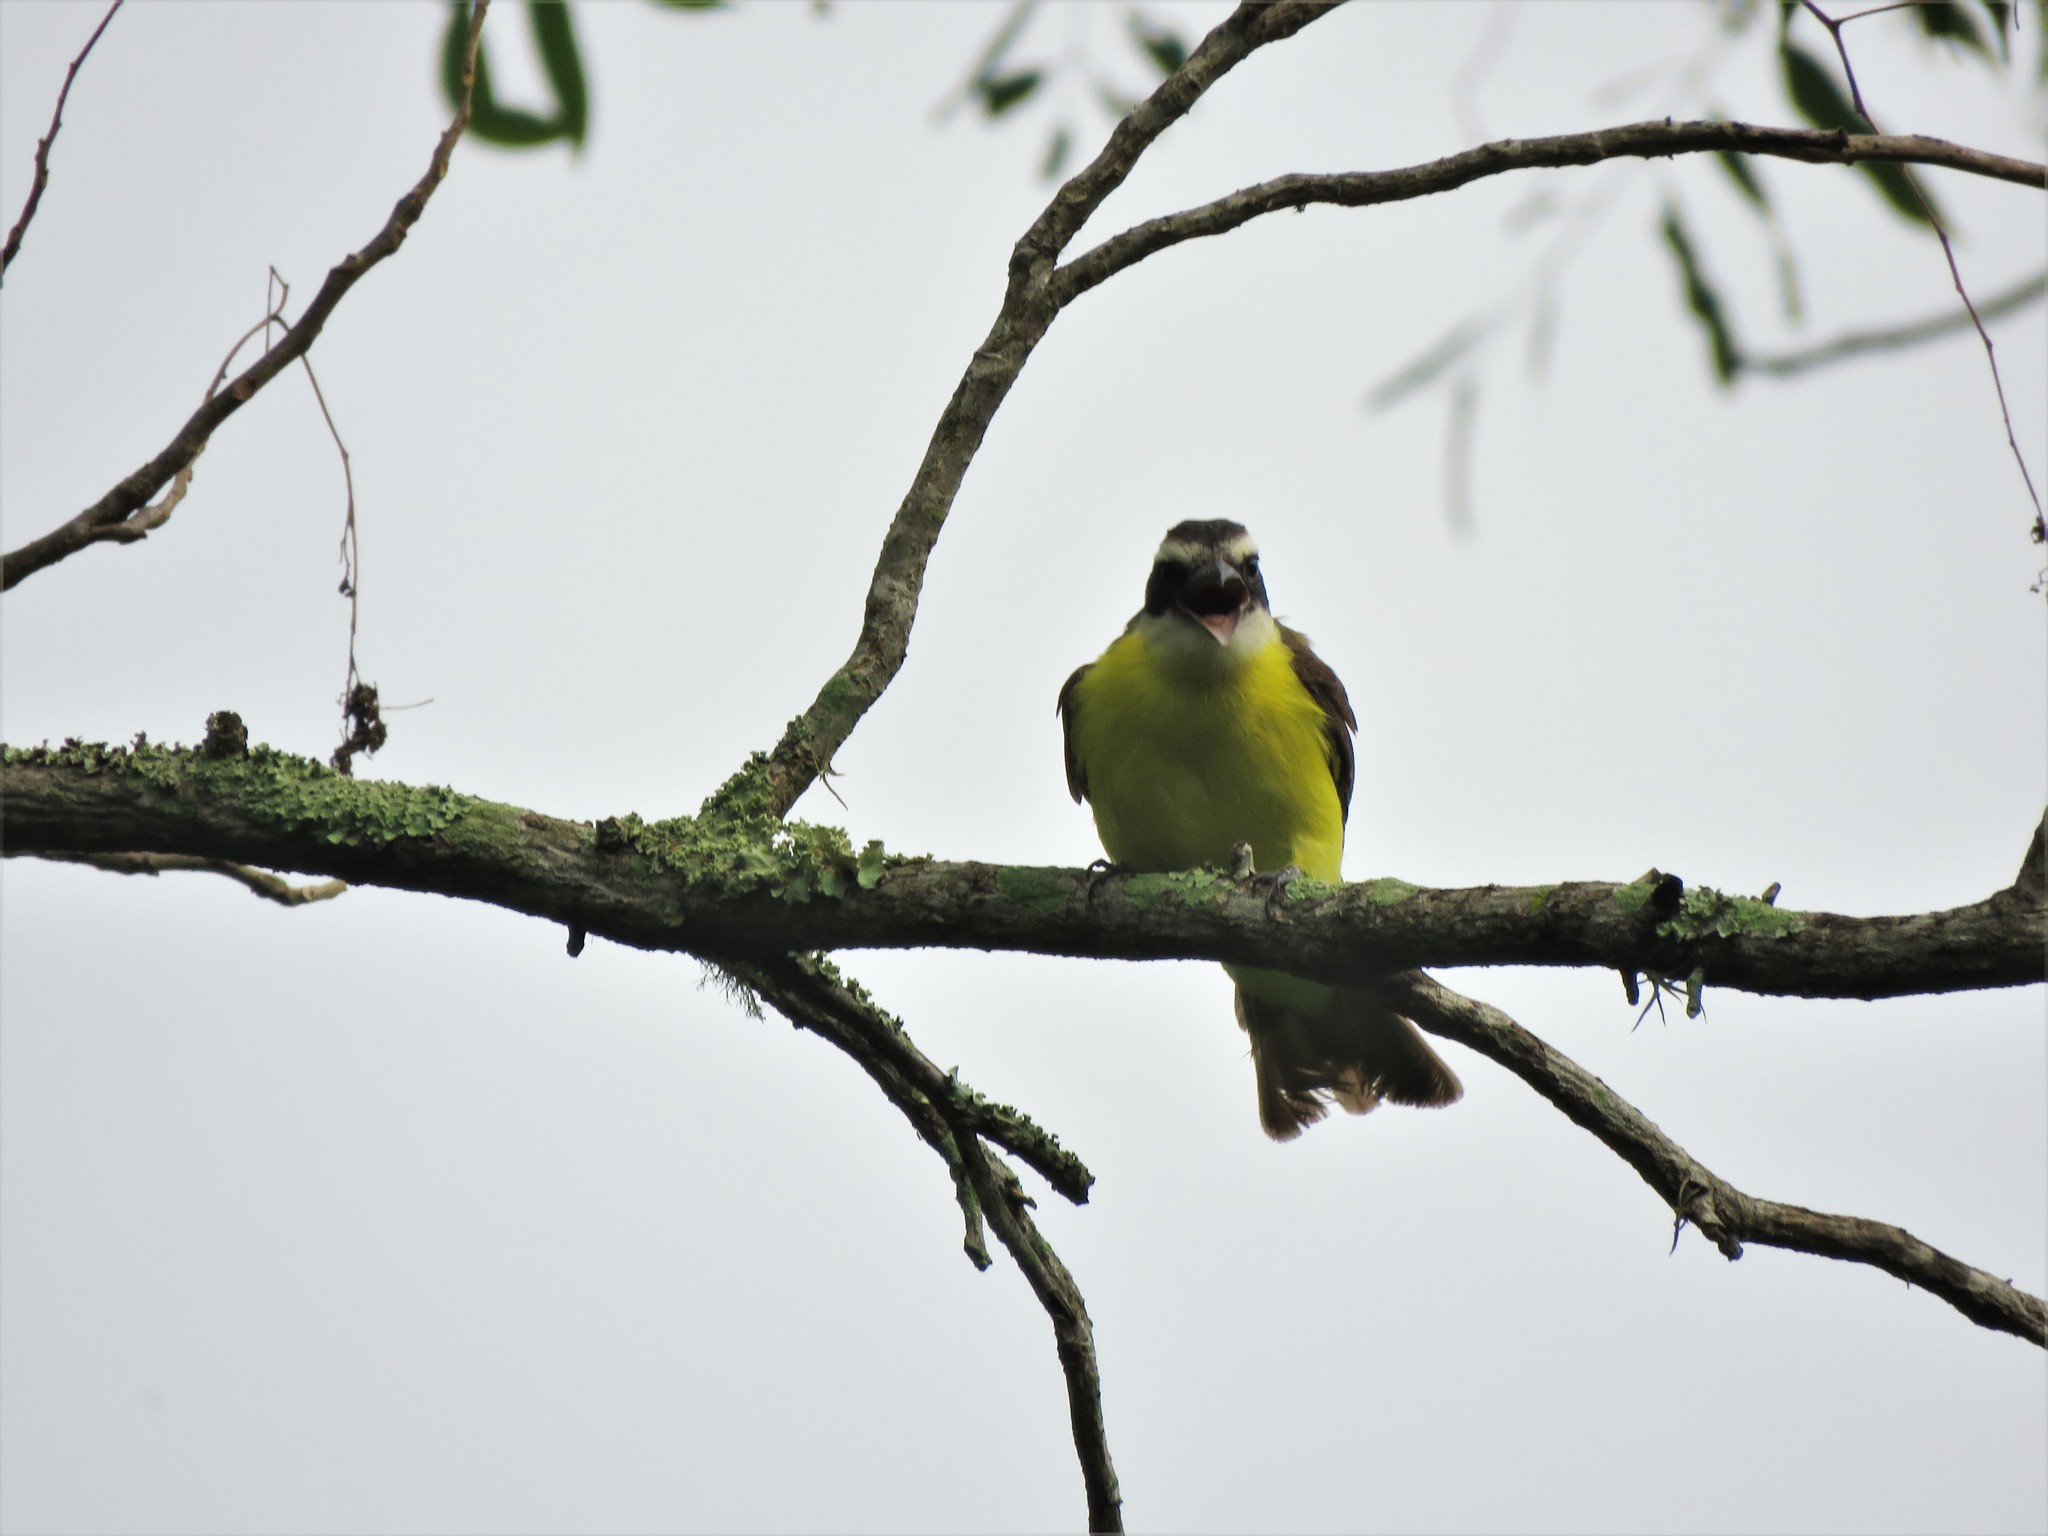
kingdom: Animalia
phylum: Chordata
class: Aves
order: Passeriformes
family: Tyrannidae
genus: Pitangus
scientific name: Pitangus sulphuratus
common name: Great kiskadee
